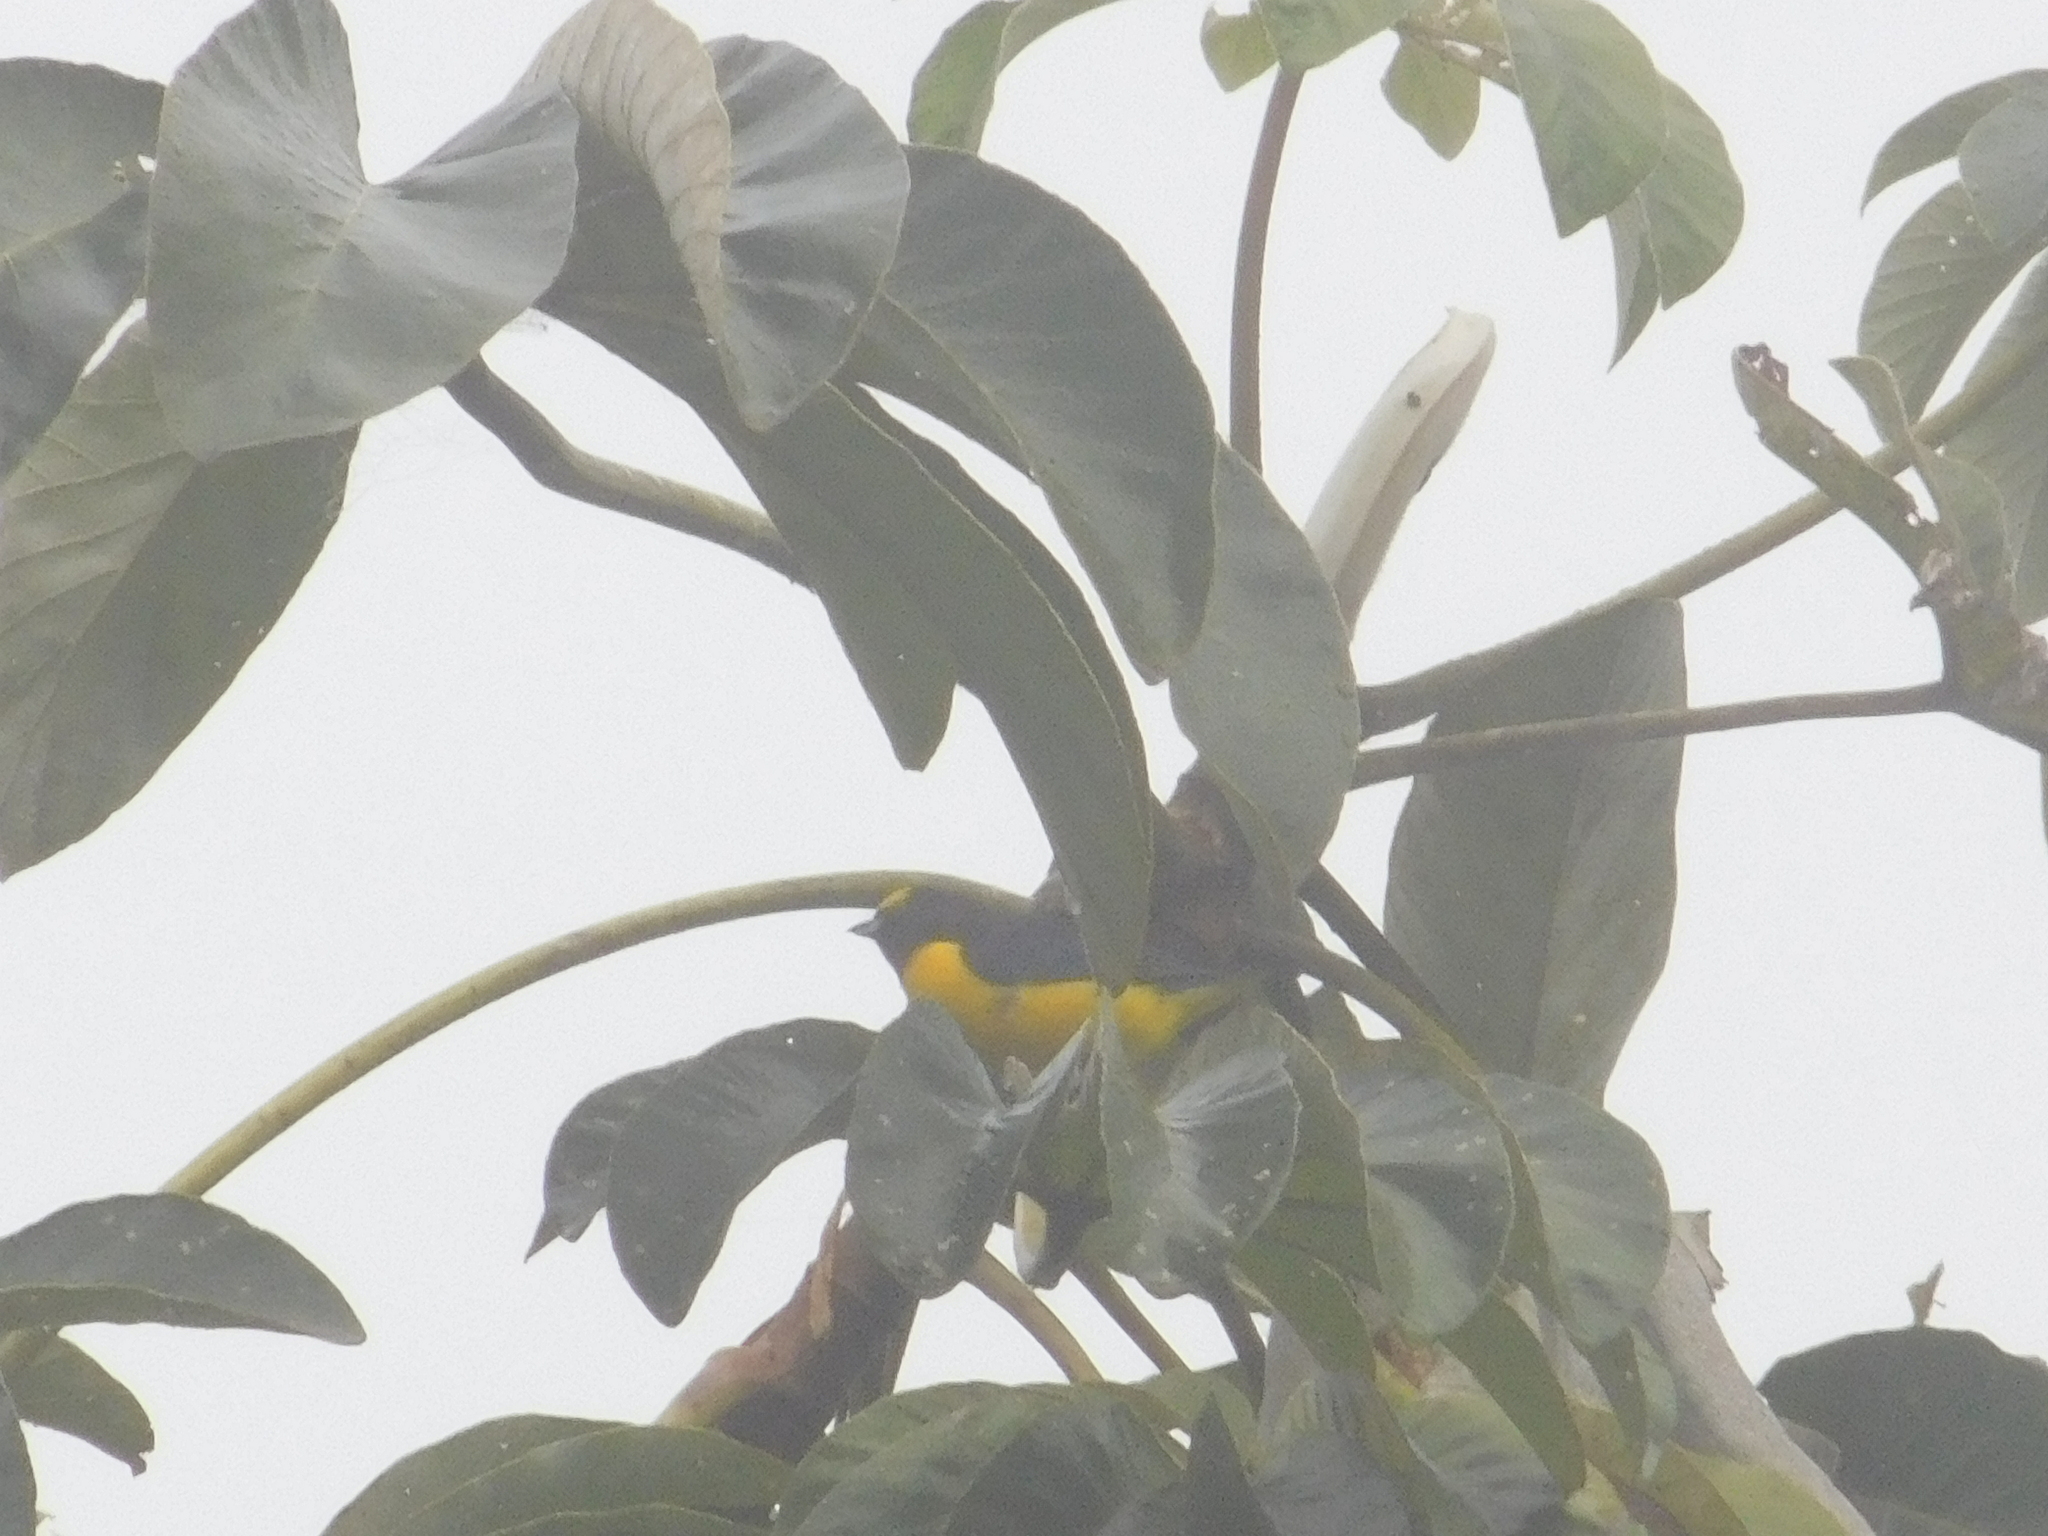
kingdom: Animalia
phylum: Chordata
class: Aves
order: Passeriformes
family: Fringillidae
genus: Euphonia
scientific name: Euphonia chlorotica
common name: Purple-throated euphonia
